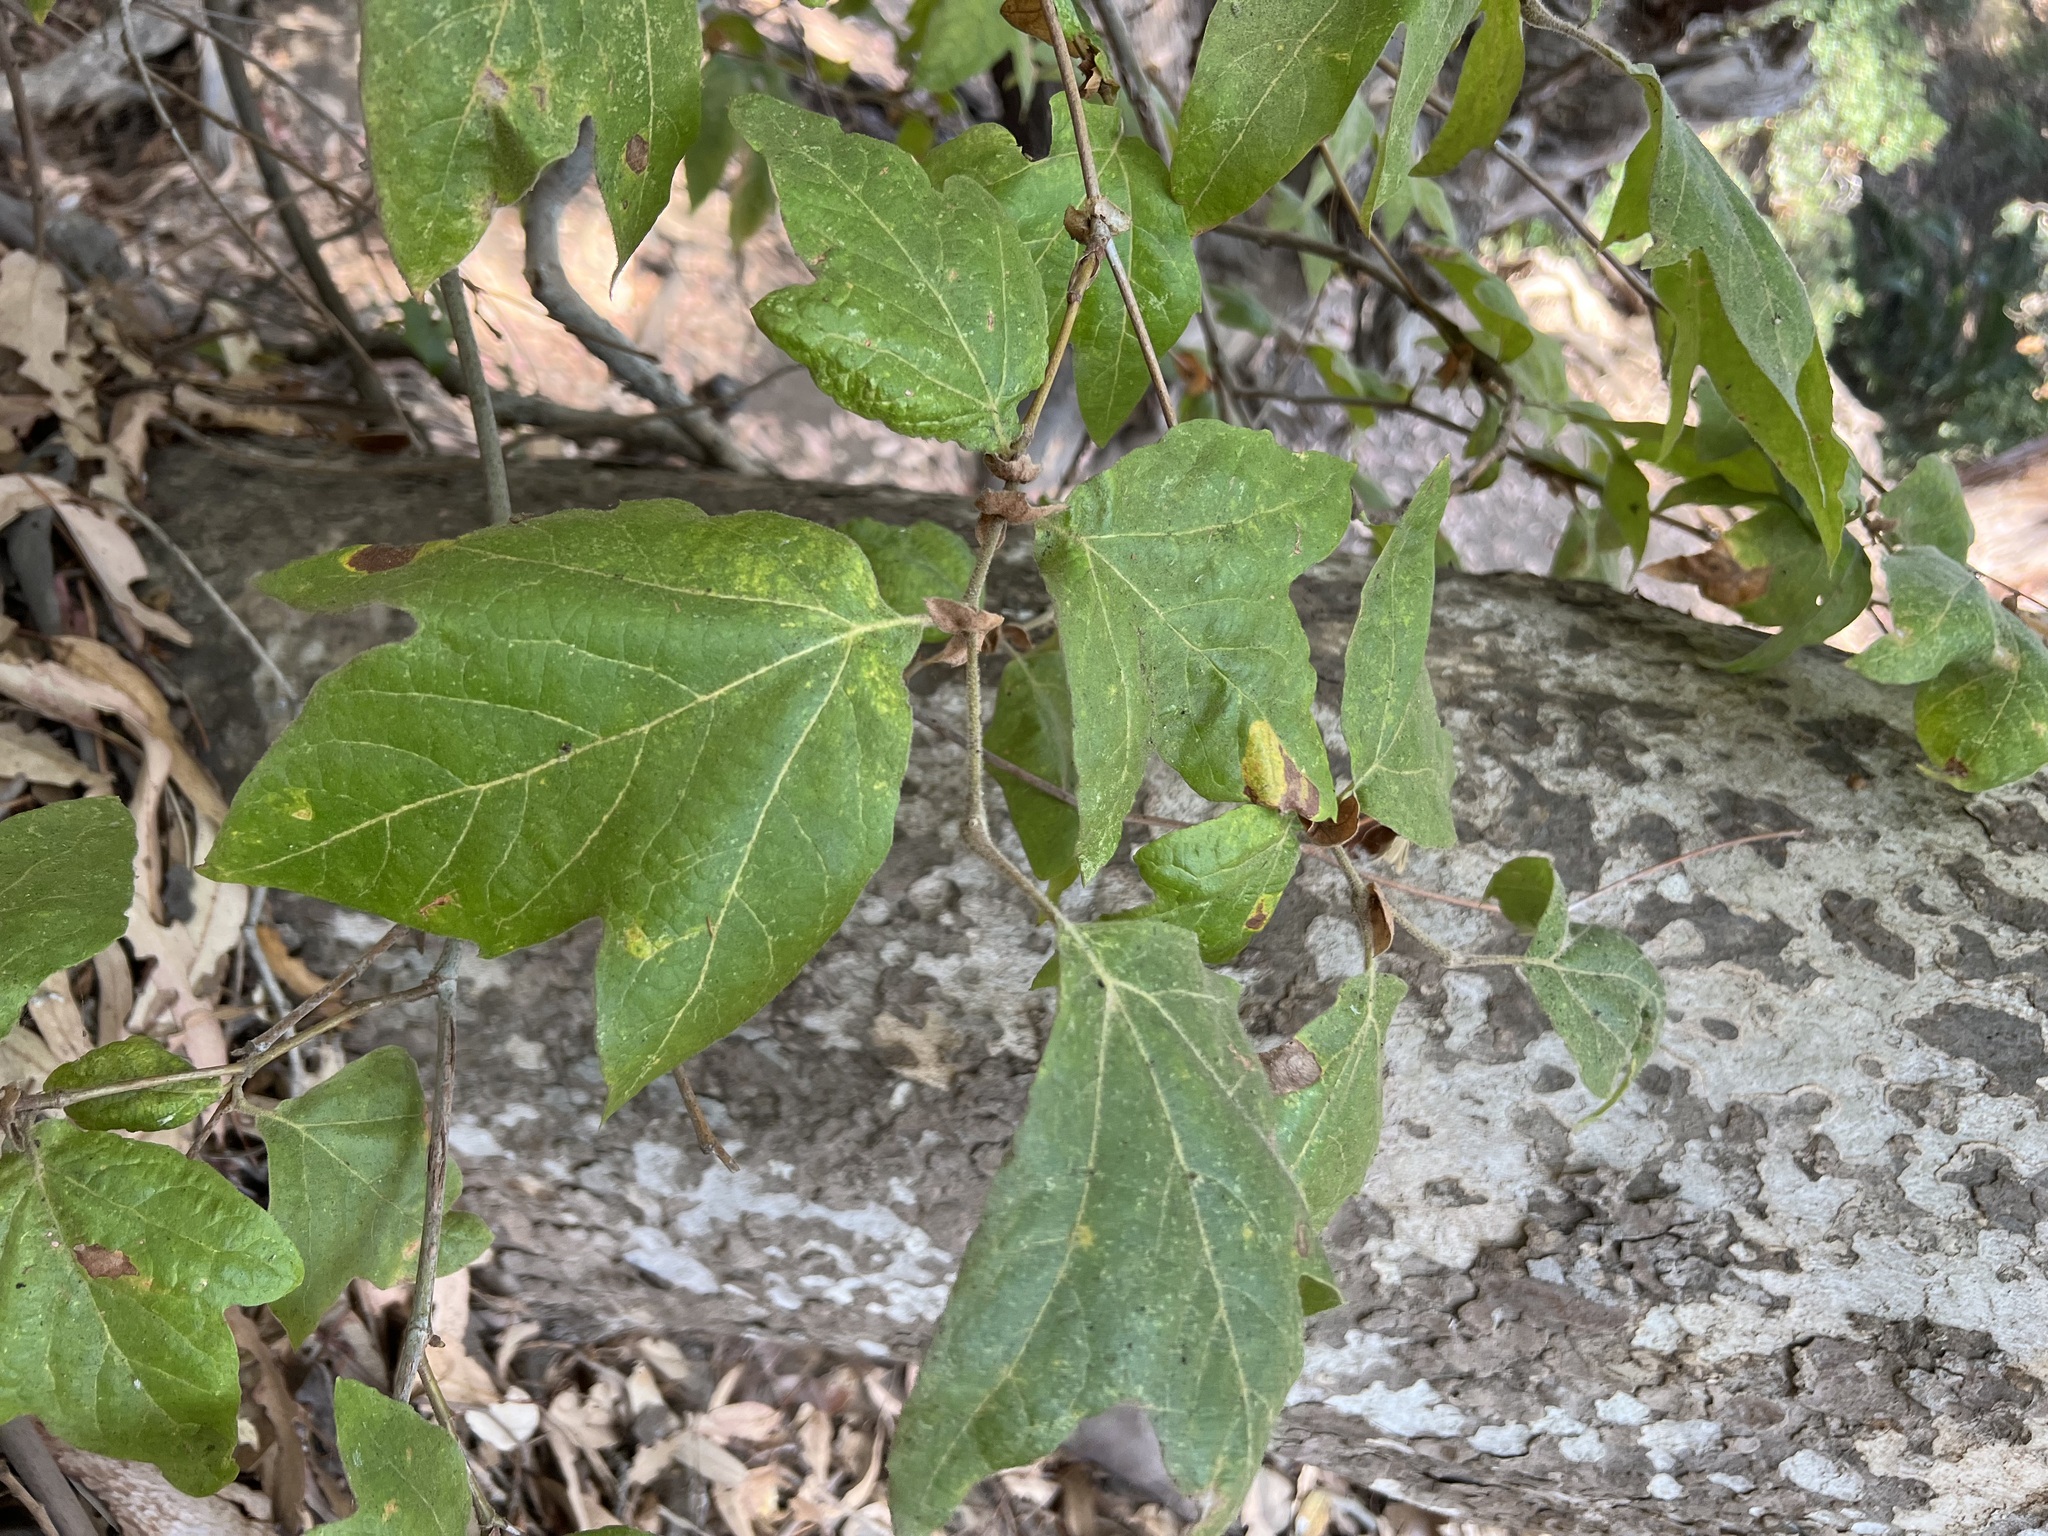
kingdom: Plantae
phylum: Tracheophyta
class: Magnoliopsida
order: Proteales
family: Platanaceae
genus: Platanus
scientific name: Platanus racemosa
